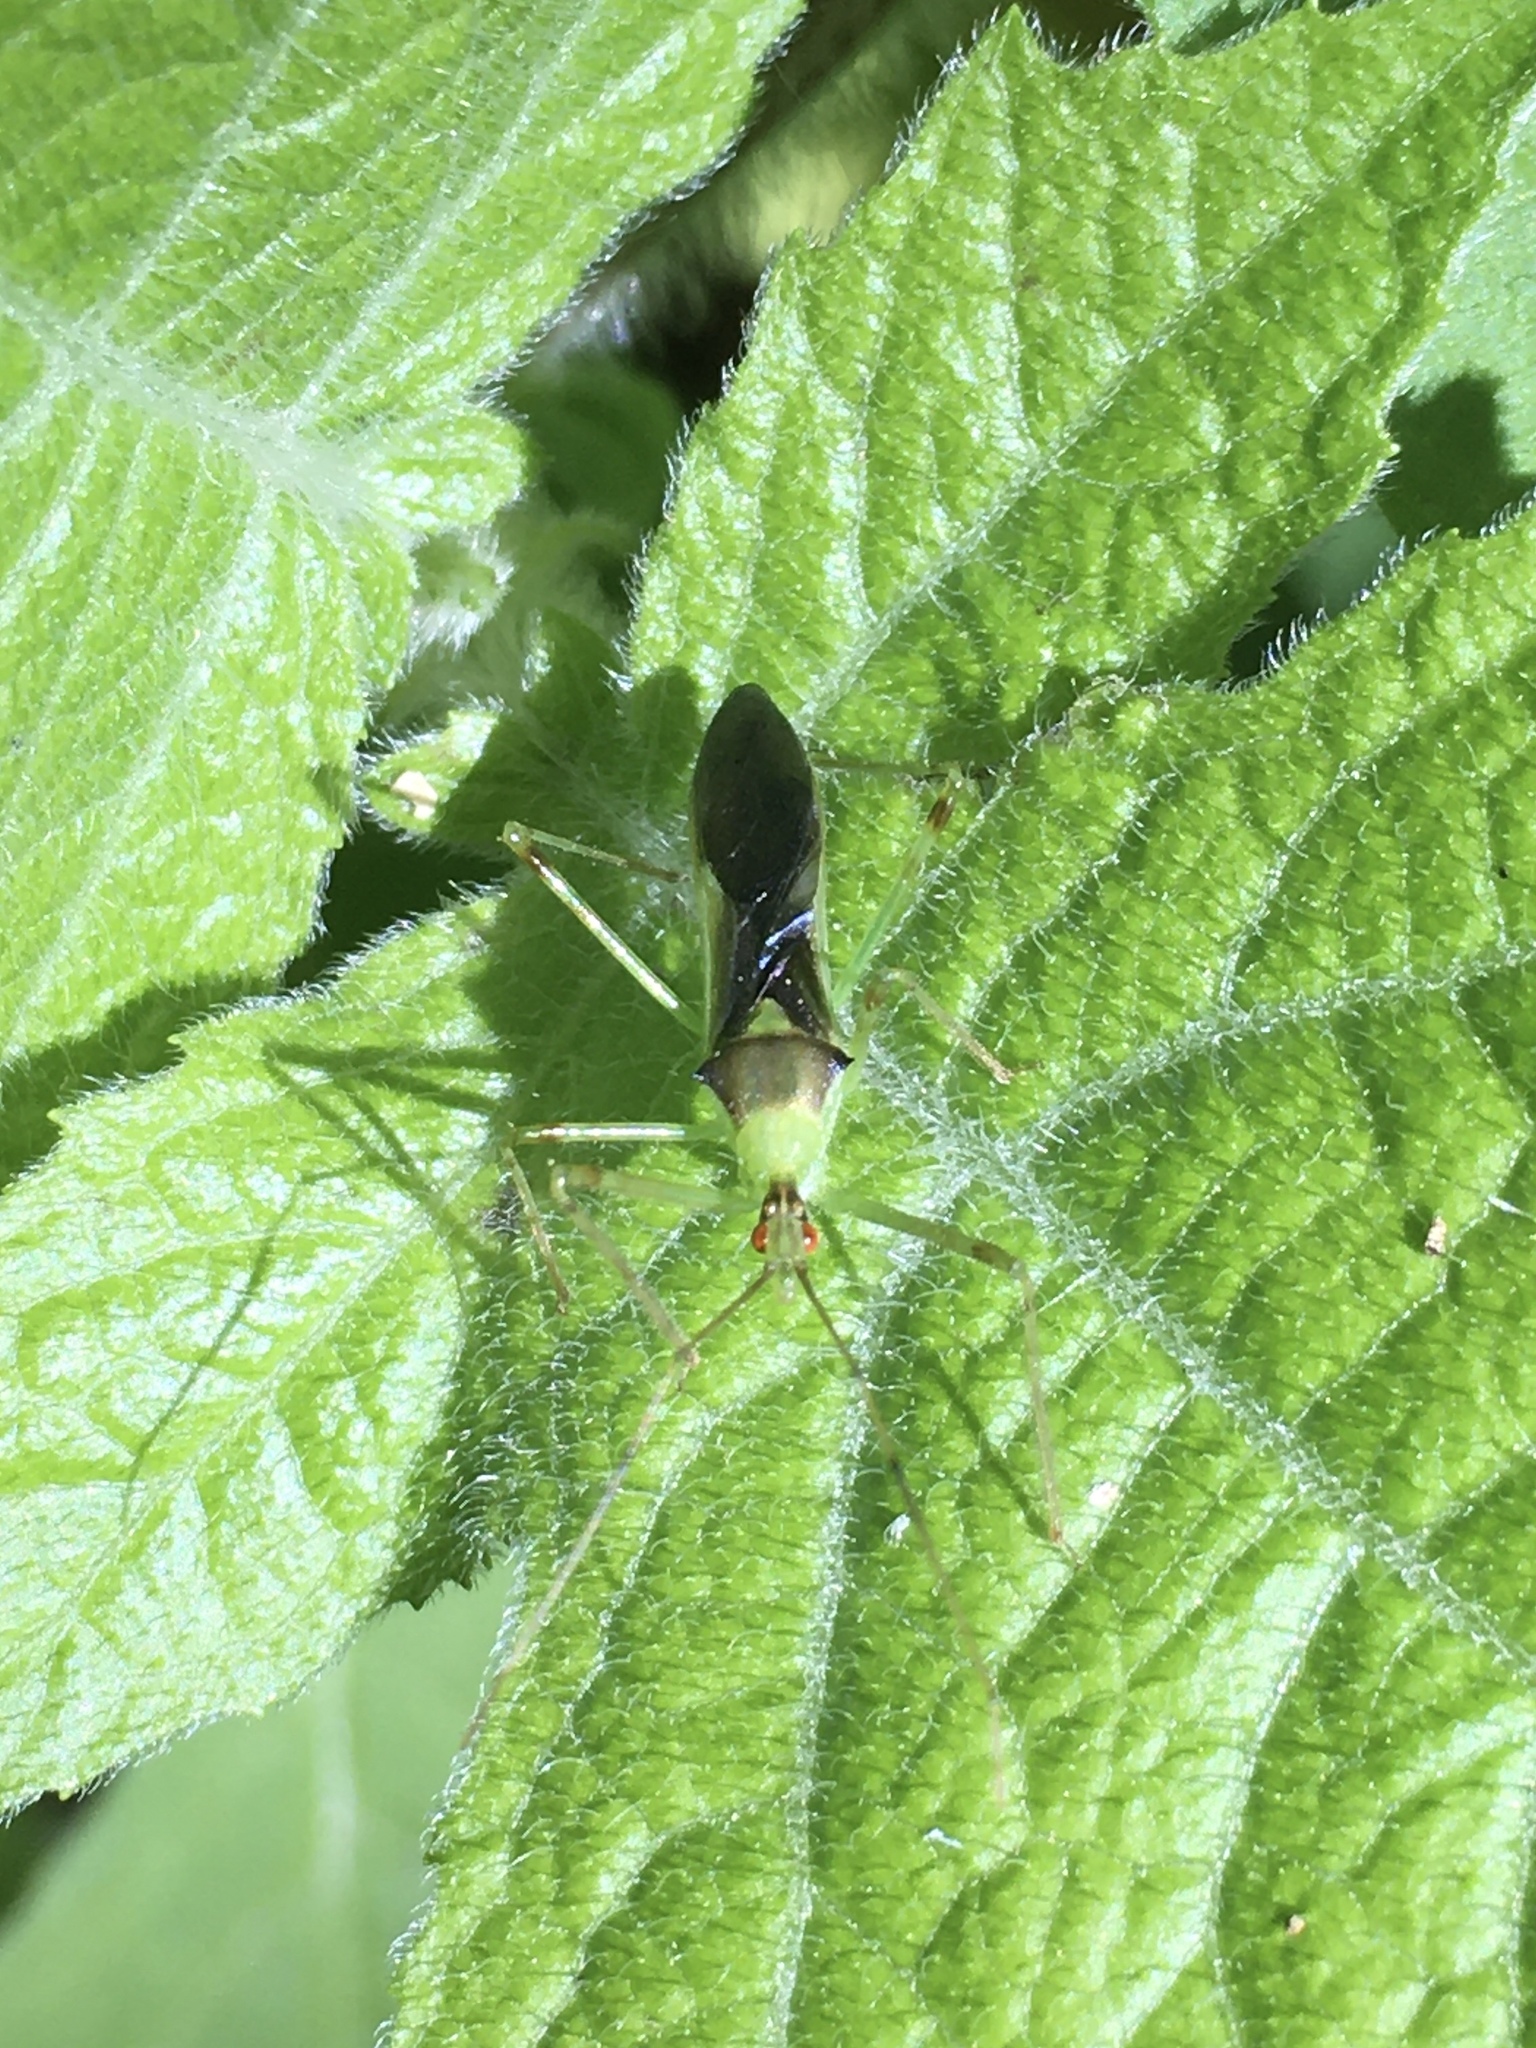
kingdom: Animalia
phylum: Arthropoda
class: Insecta
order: Hemiptera
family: Reduviidae
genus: Zelus
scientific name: Zelus luridus
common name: Pale green assassin bug
